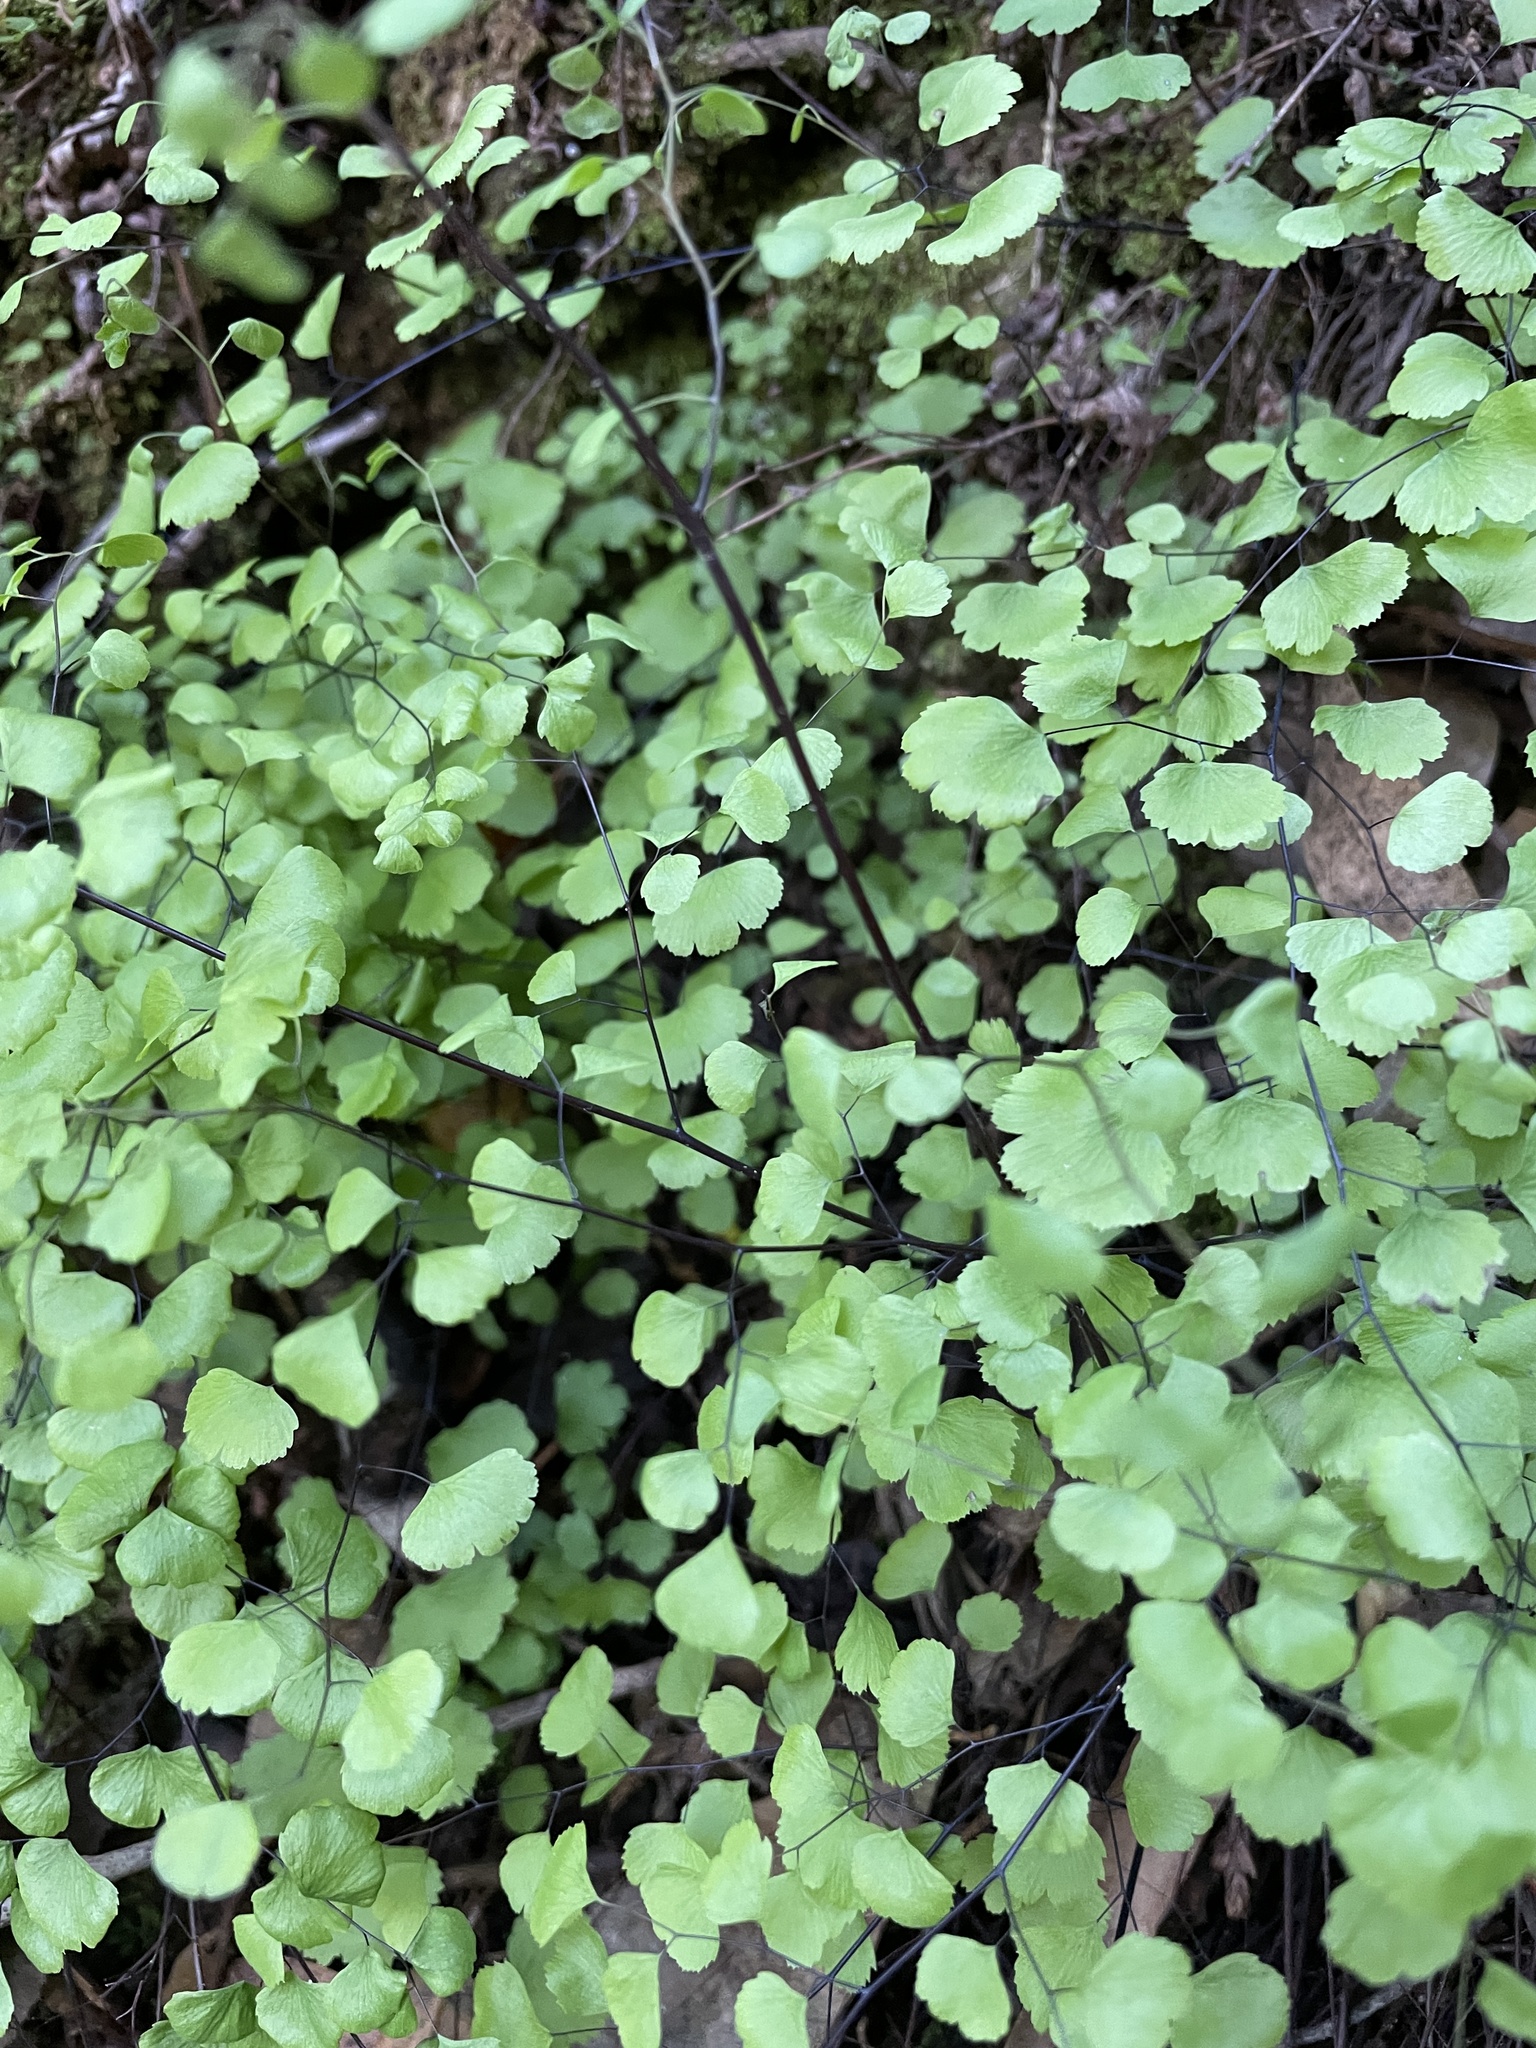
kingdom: Plantae
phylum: Tracheophyta
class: Polypodiopsida
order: Polypodiales
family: Pteridaceae
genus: Adiantum
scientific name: Adiantum jordanii
